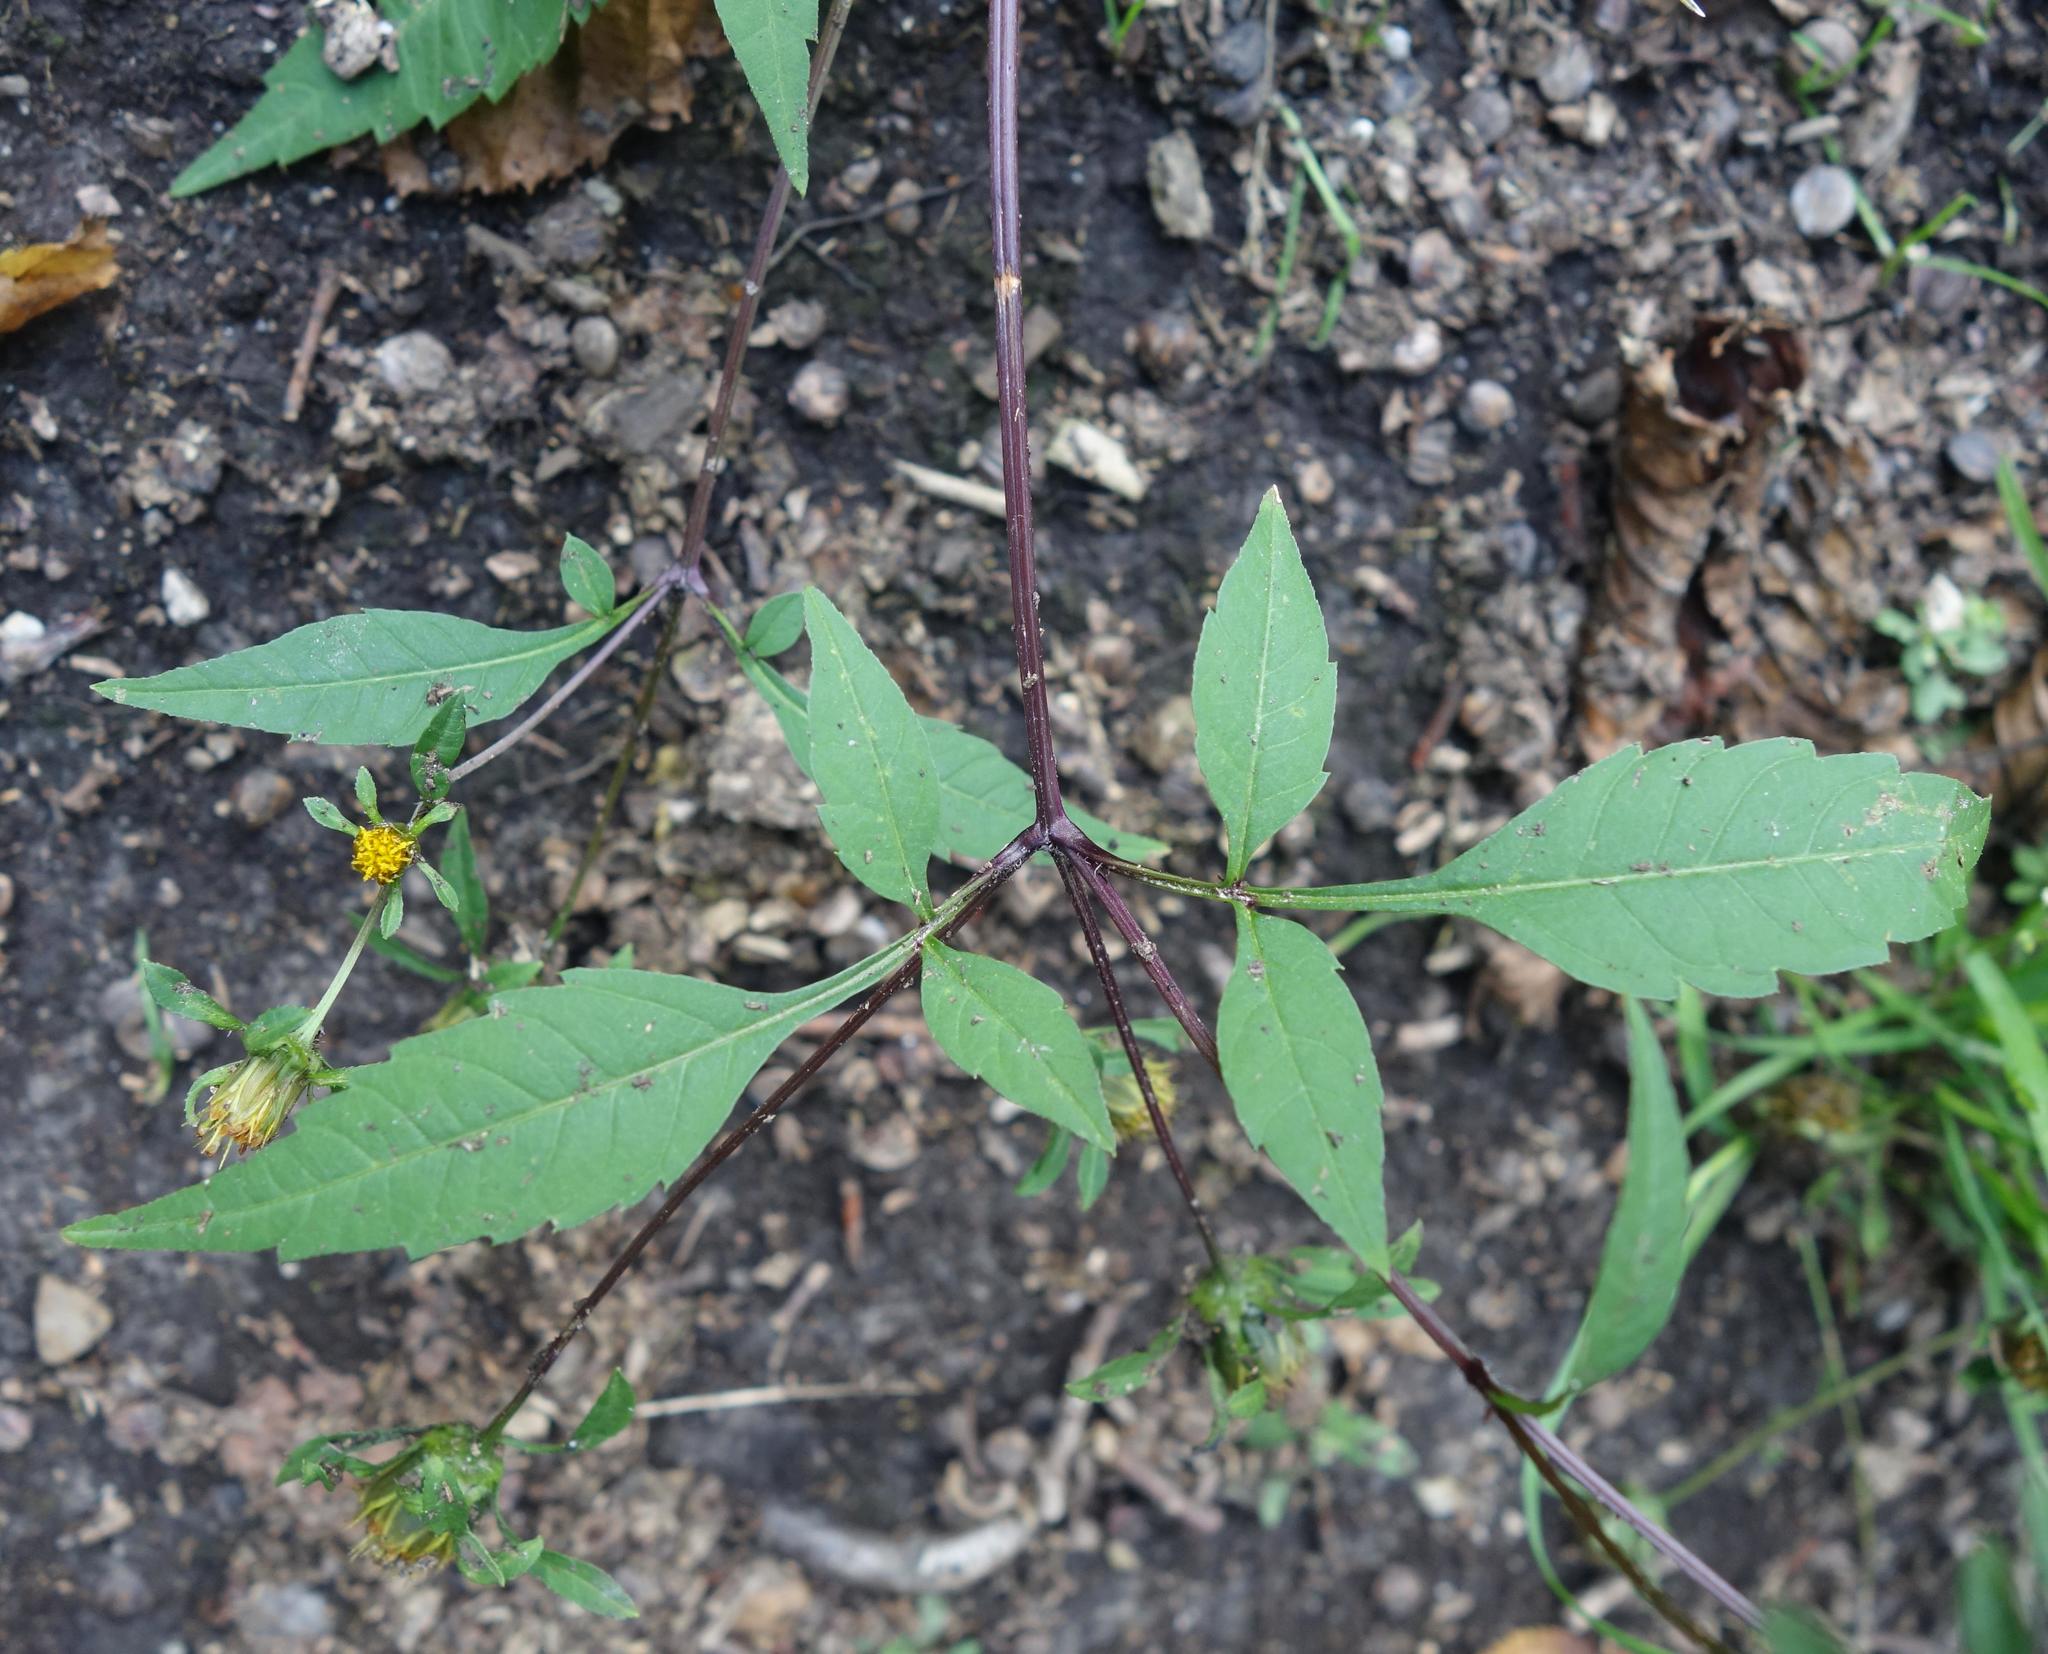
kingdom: Plantae
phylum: Tracheophyta
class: Magnoliopsida
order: Asterales
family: Asteraceae
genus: Bidens
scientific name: Bidens frondosa
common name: Beggarticks
